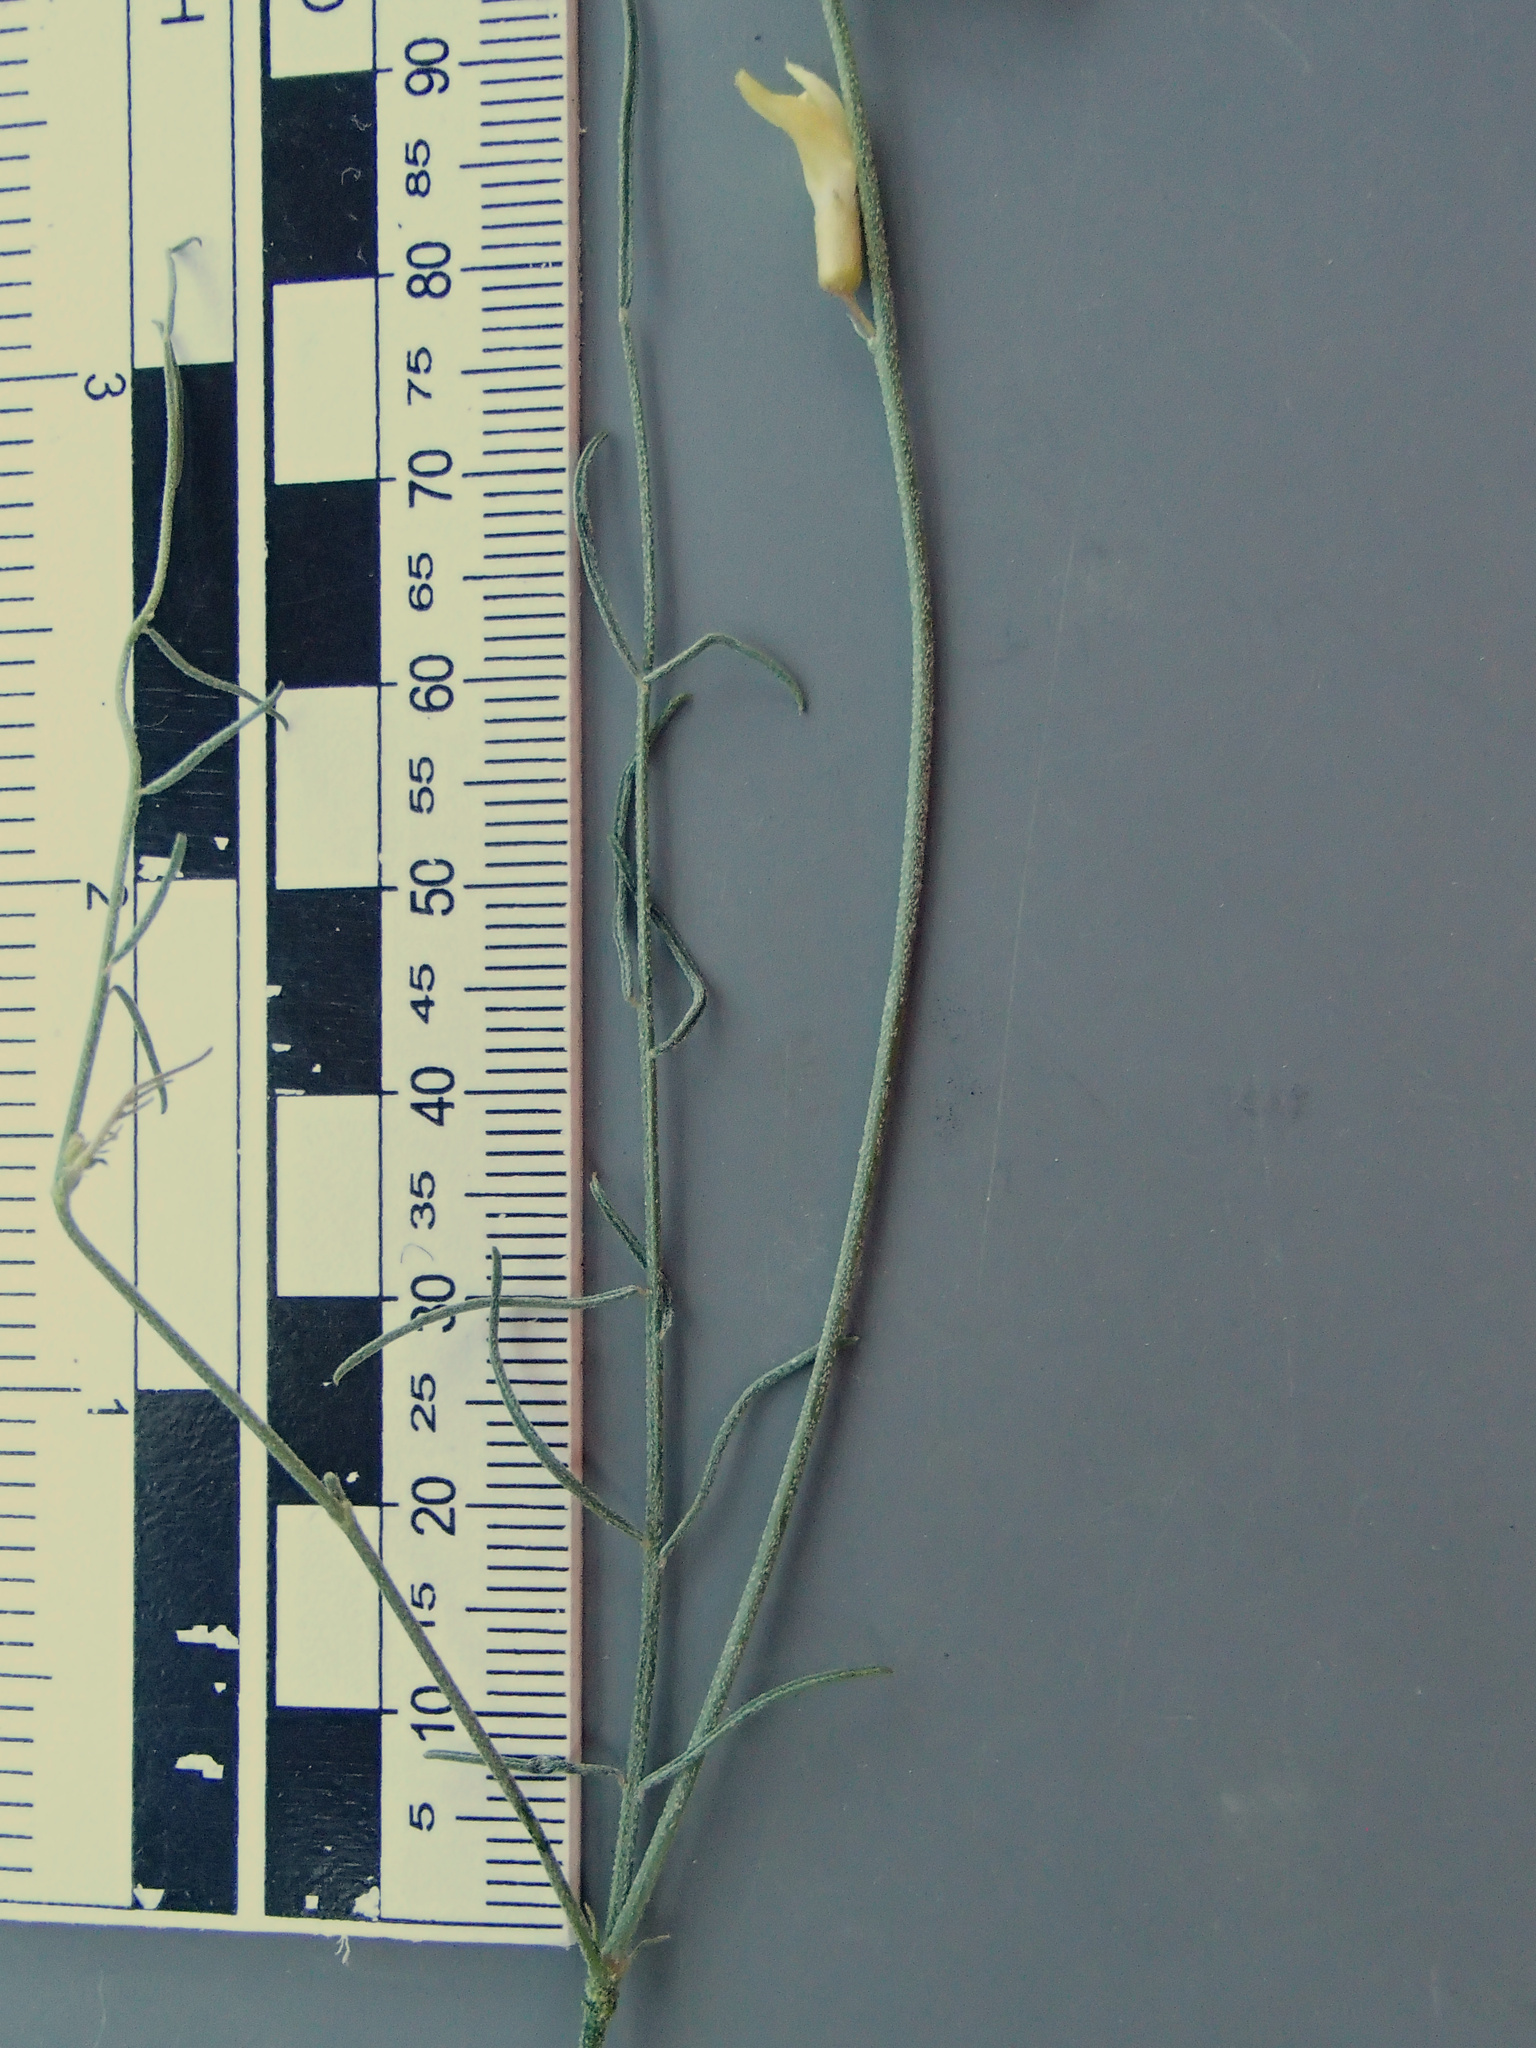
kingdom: Plantae
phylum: Tracheophyta
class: Magnoliopsida
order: Fabales
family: Fabaceae
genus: Astragalus
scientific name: Astragalus filipes
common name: Basalt milk-vetch
